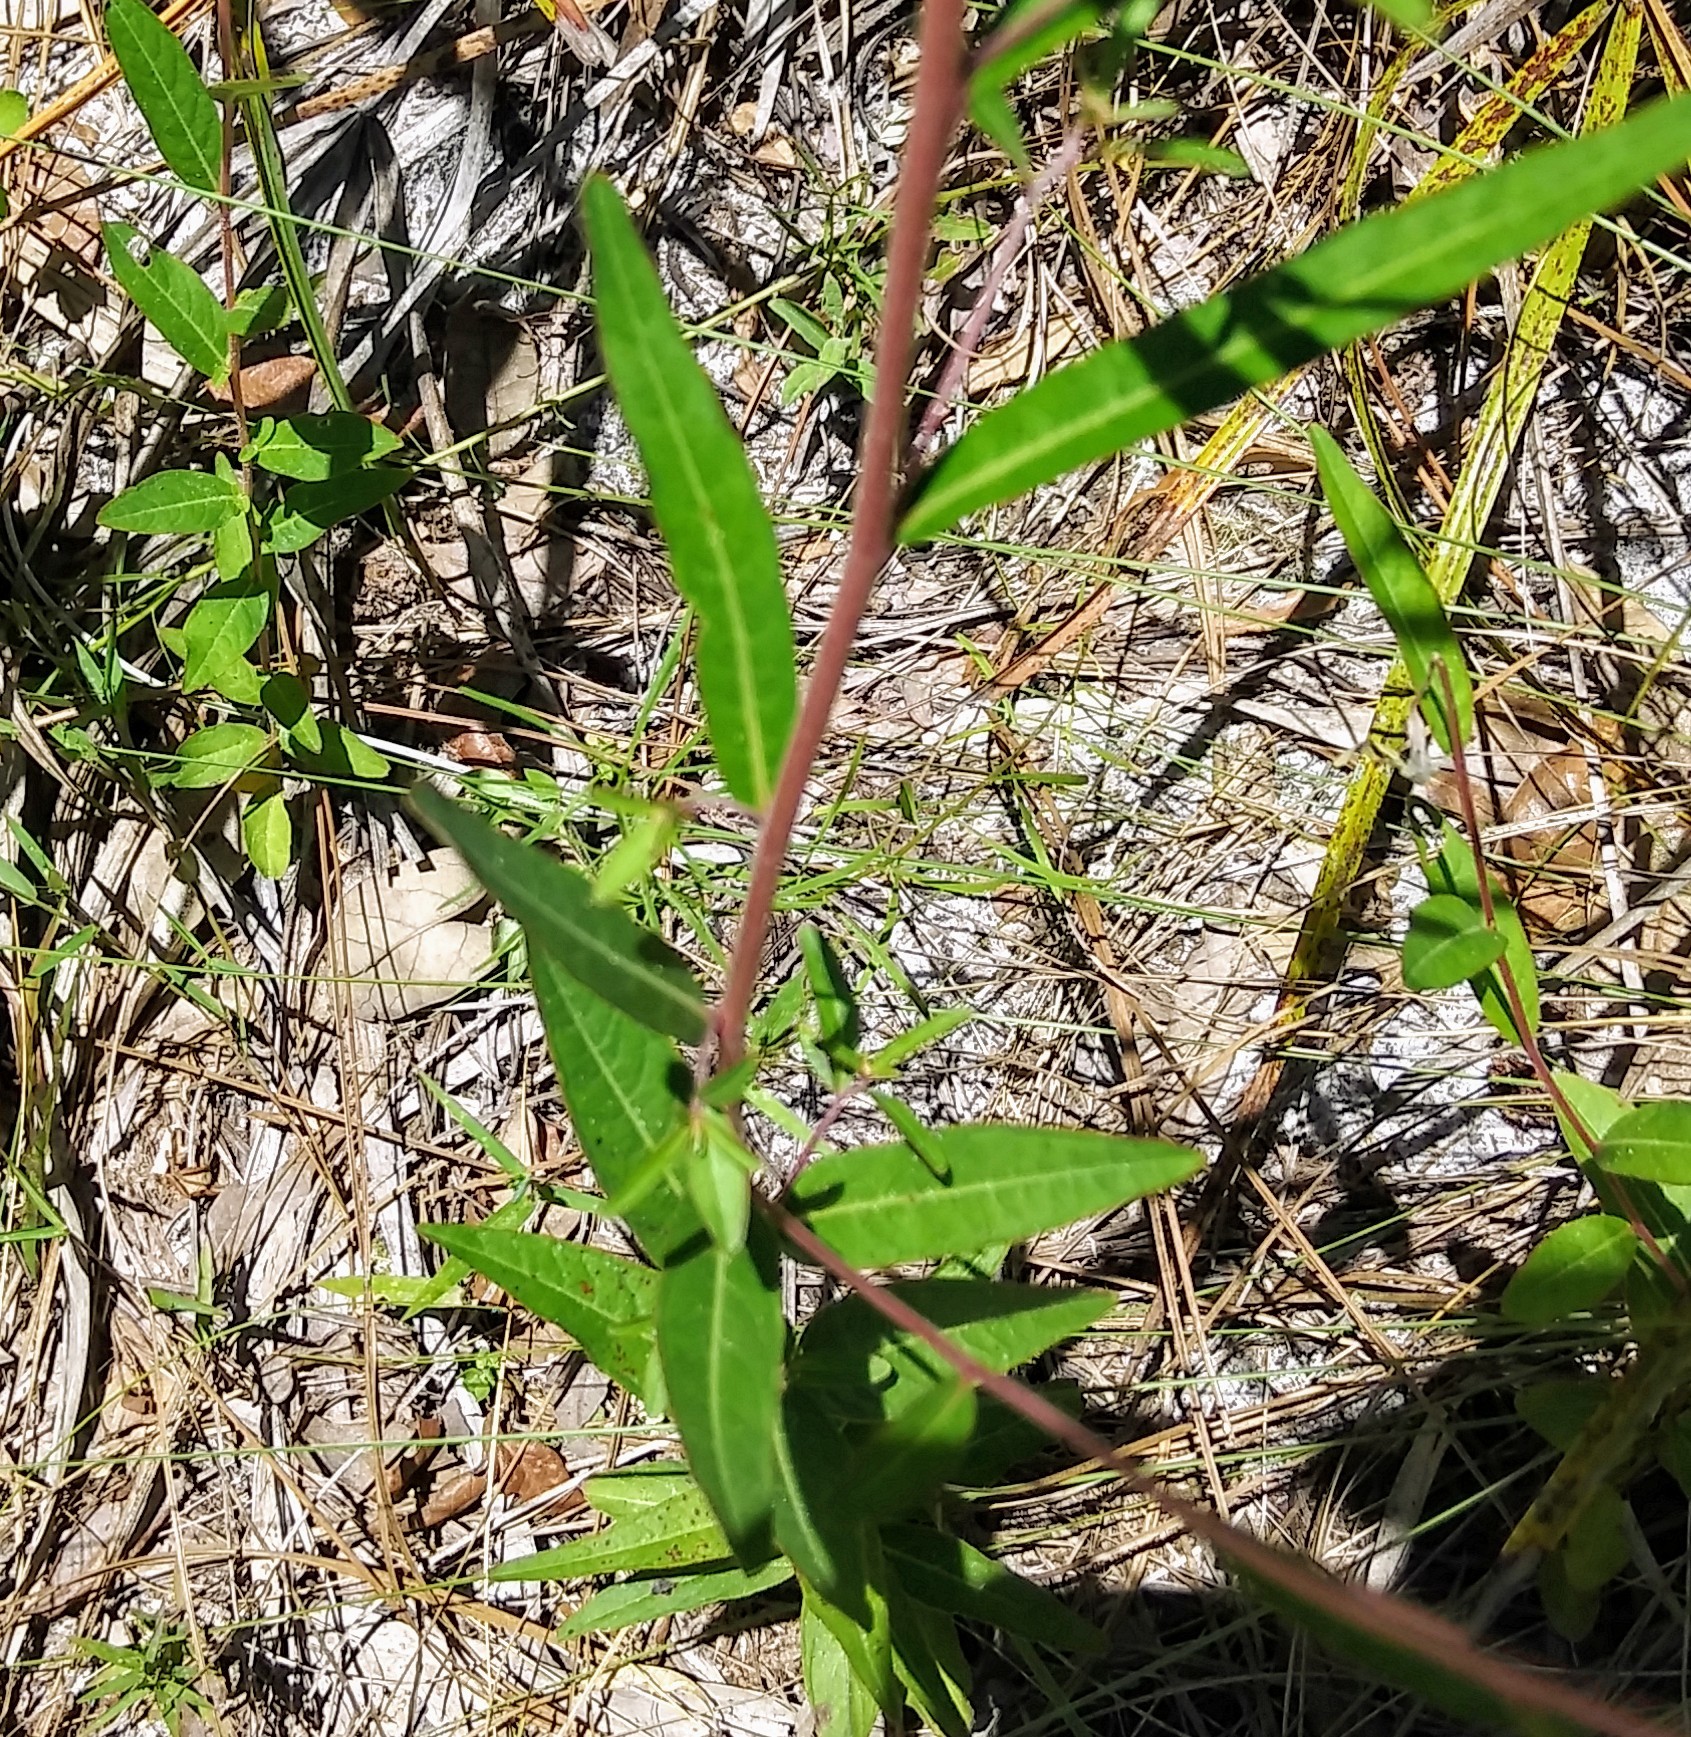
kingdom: Plantae
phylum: Tracheophyta
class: Magnoliopsida
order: Myrtales
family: Onagraceae
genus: Ludwigia
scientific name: Ludwigia maritima
